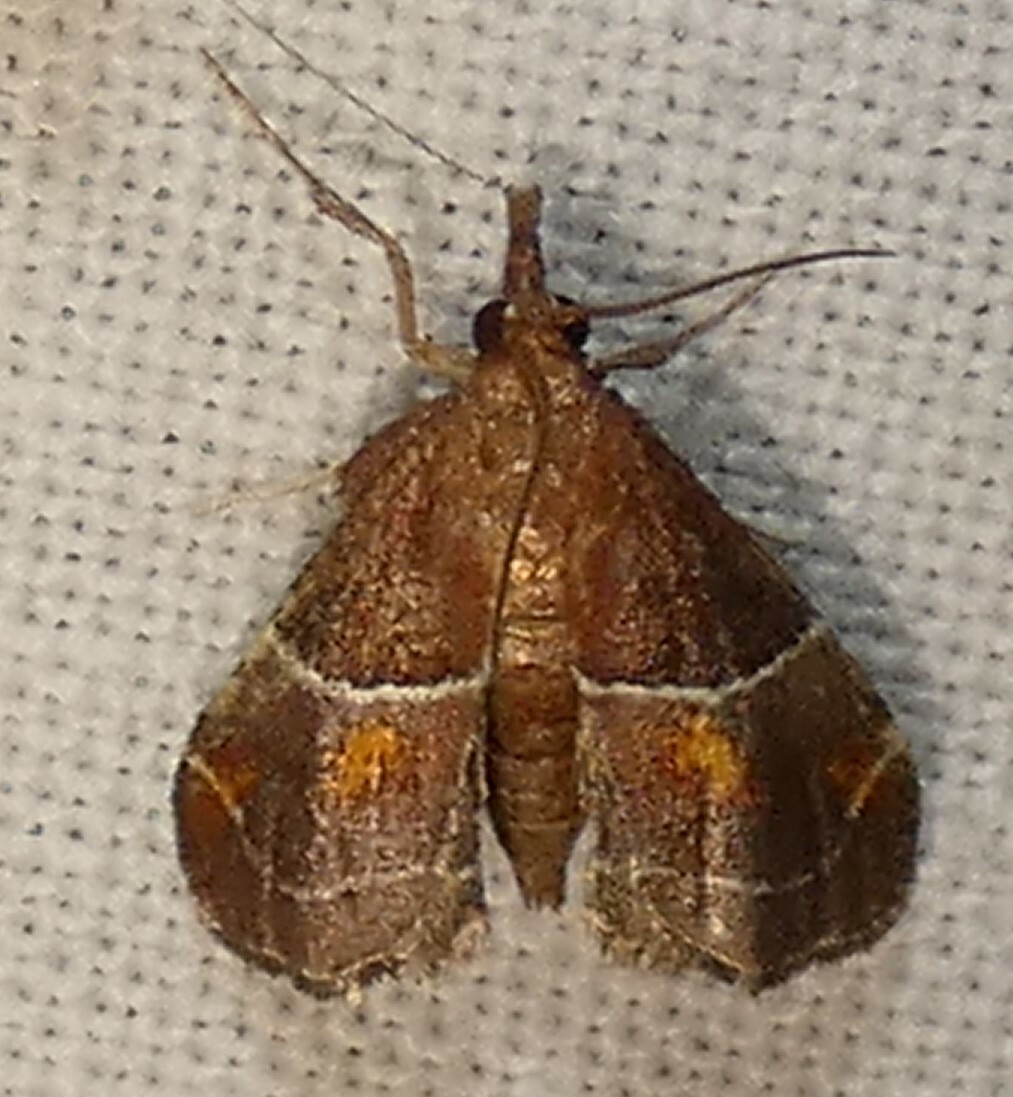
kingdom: Animalia
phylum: Arthropoda
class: Insecta
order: Lepidoptera
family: Pyralidae
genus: Penthesilea
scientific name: Penthesilea sacculalis
